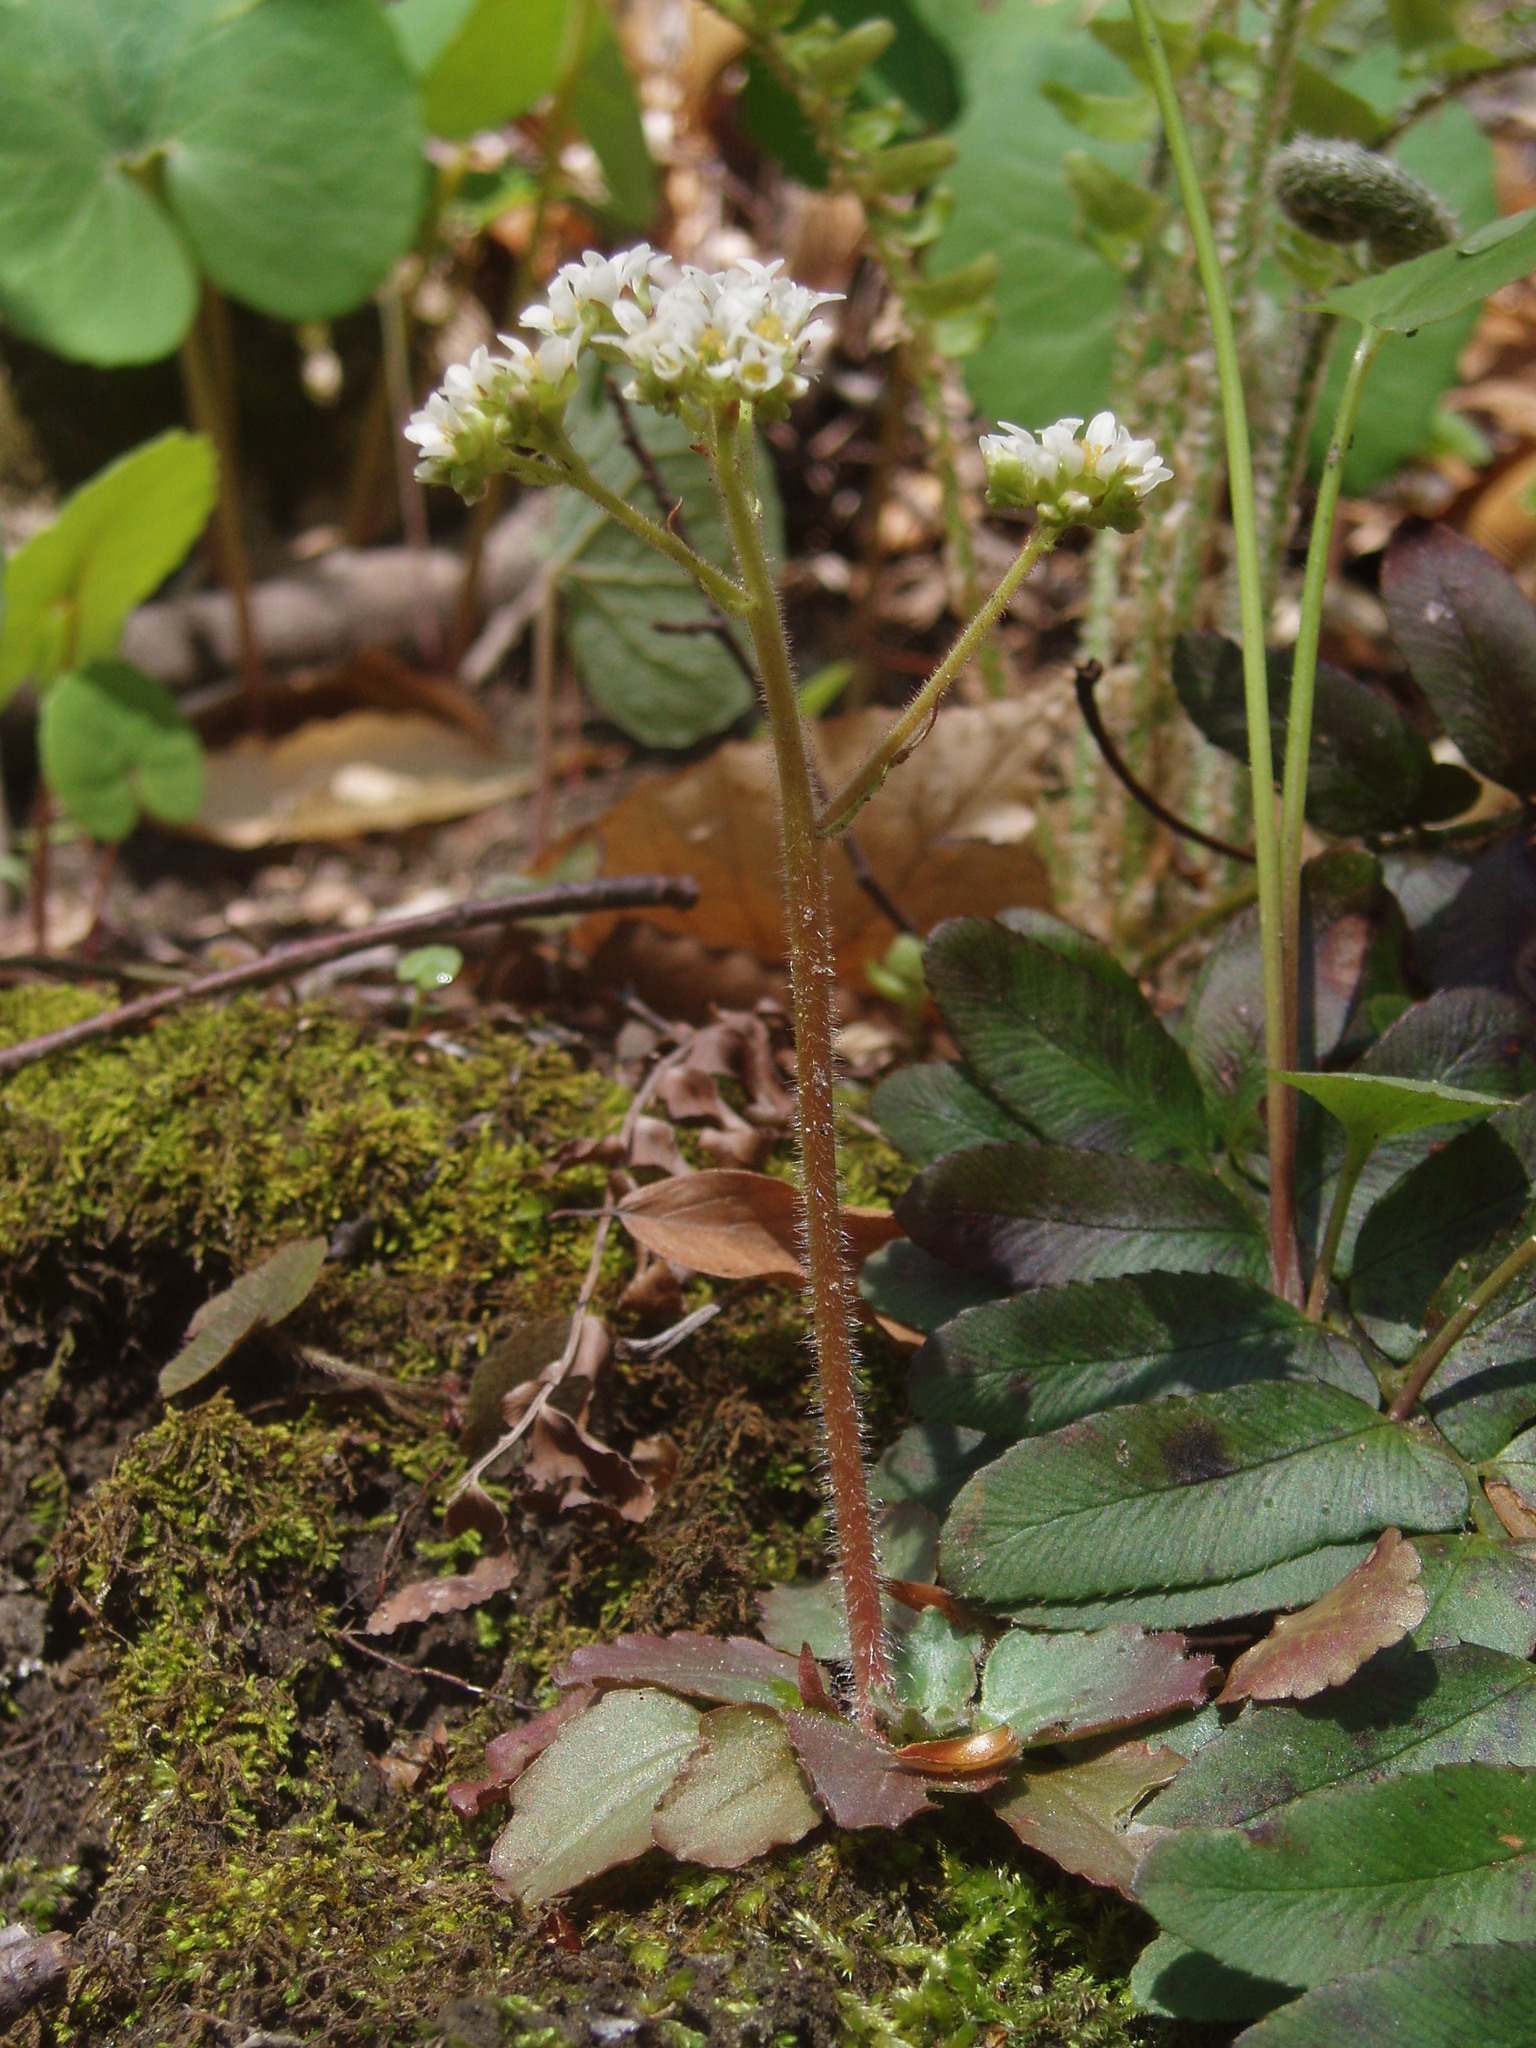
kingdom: Plantae
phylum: Tracheophyta
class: Magnoliopsida
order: Saxifragales
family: Saxifragaceae
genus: Micranthes
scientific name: Micranthes virginiensis
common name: Early saxifrage
